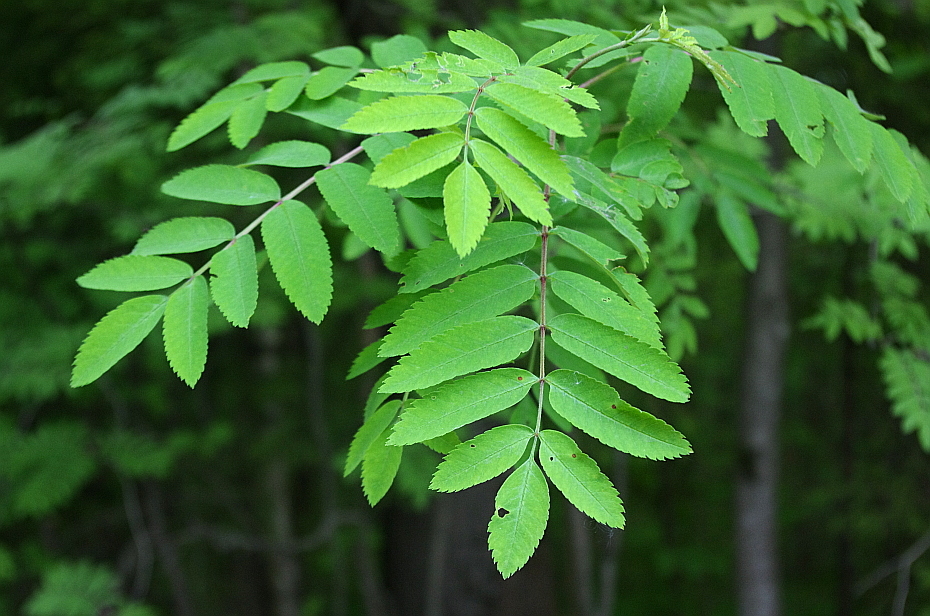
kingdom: Plantae
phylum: Tracheophyta
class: Magnoliopsida
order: Rosales
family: Rosaceae
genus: Sorbus
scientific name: Sorbus aucuparia
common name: Rowan
